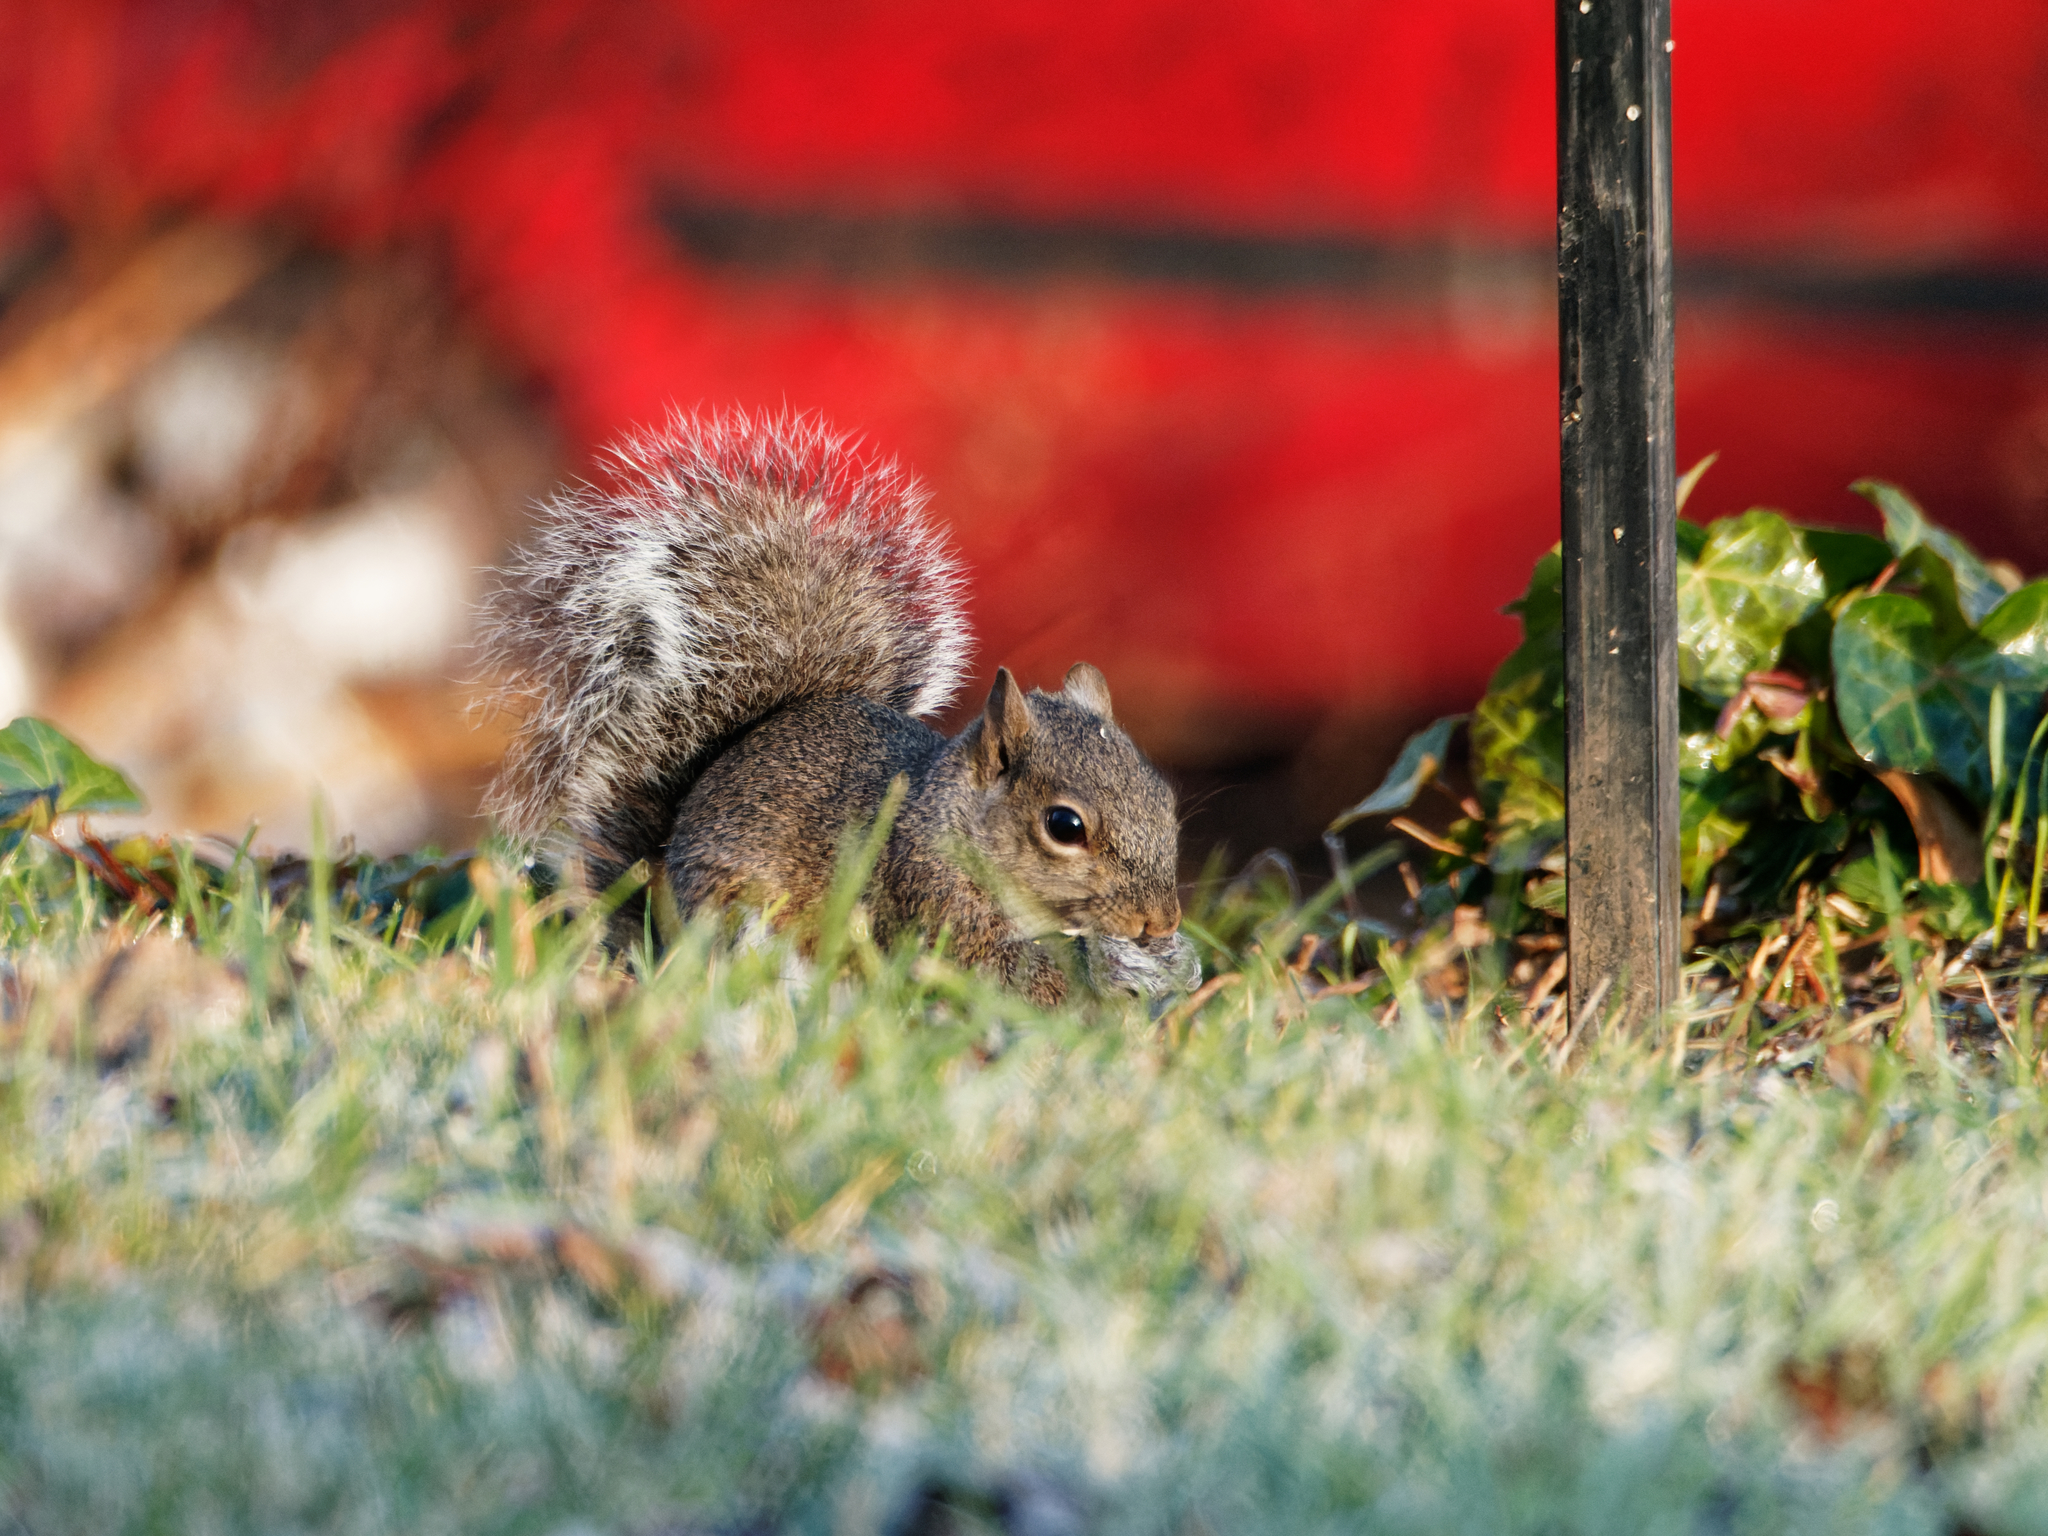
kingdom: Animalia
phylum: Chordata
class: Mammalia
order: Rodentia
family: Sciuridae
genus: Sciurus
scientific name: Sciurus carolinensis
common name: Eastern gray squirrel
